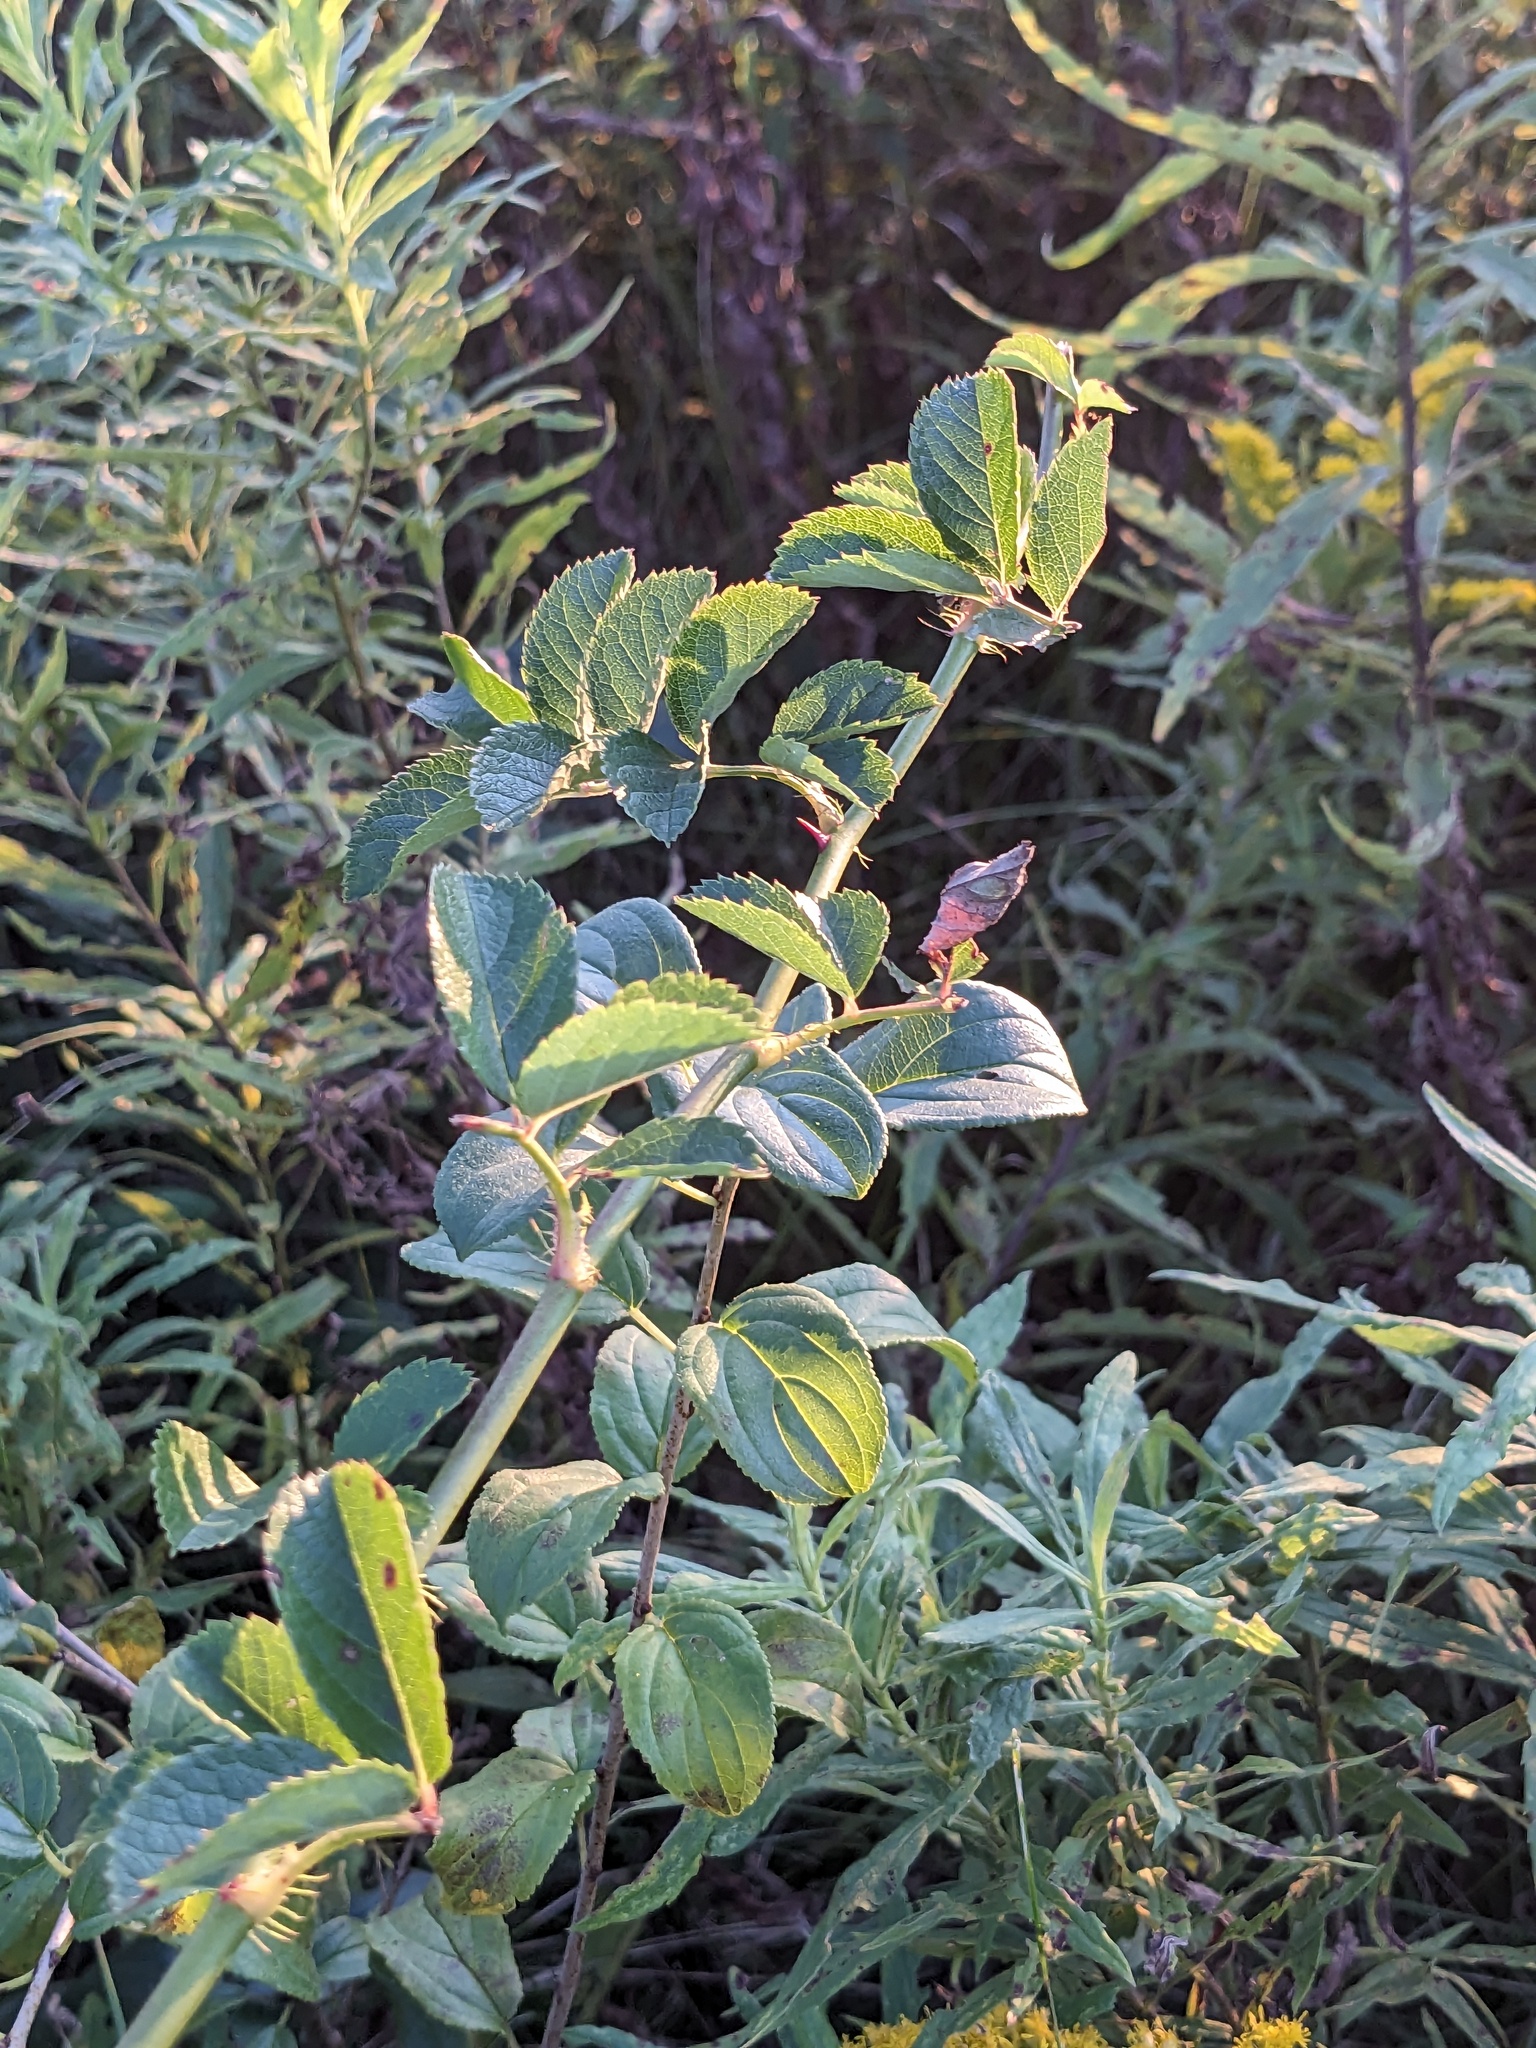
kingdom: Plantae
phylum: Tracheophyta
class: Magnoliopsida
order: Rosales
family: Rosaceae
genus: Rosa
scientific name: Rosa multiflora
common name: Multiflora rose
